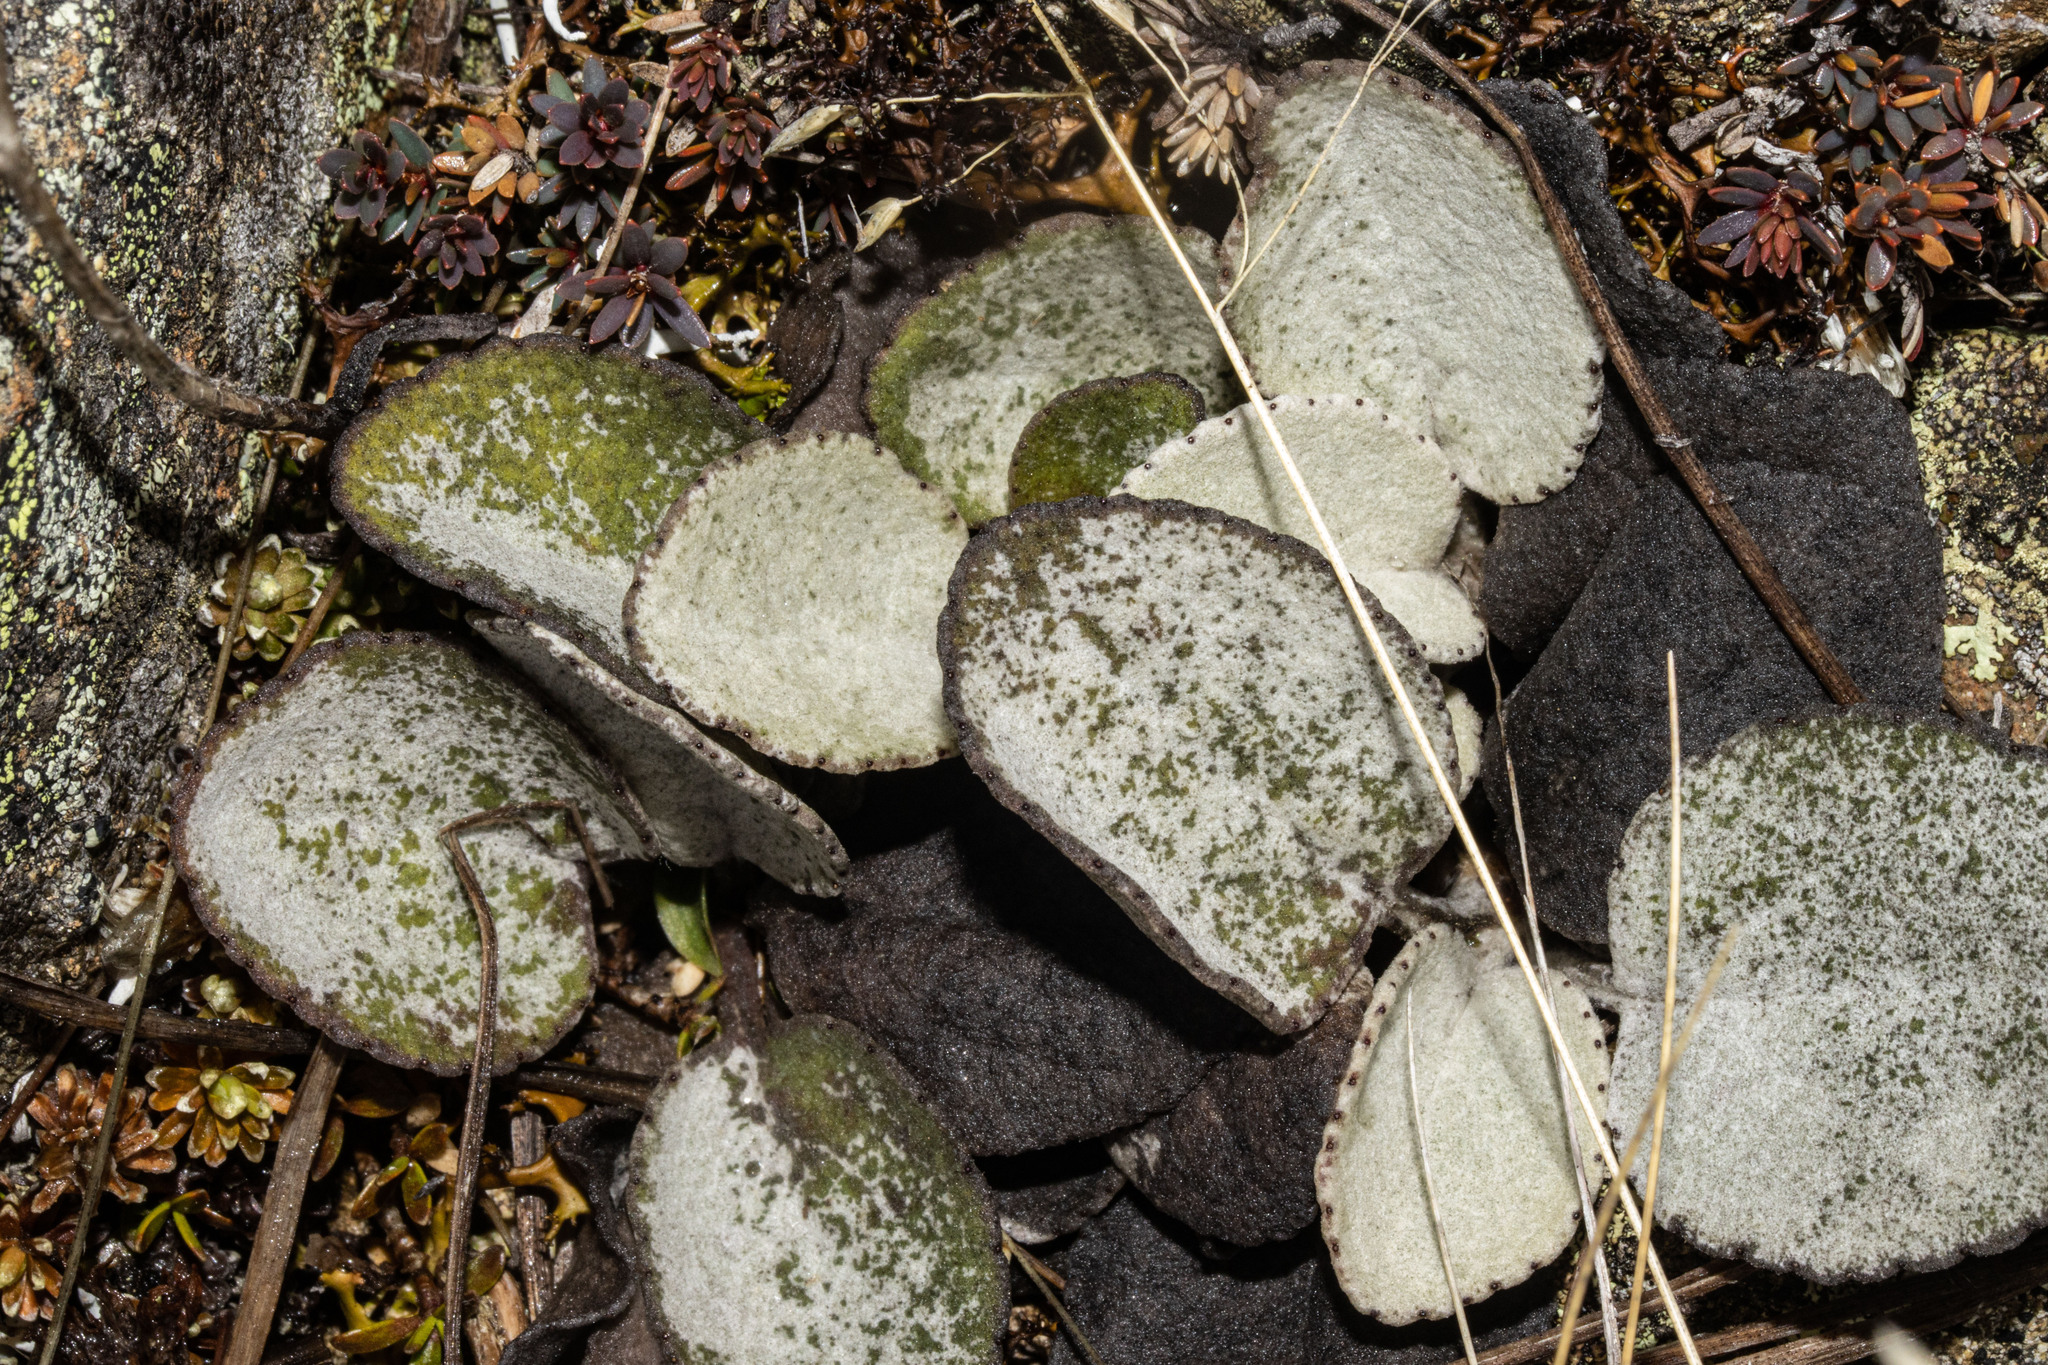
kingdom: Plantae
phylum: Tracheophyta
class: Magnoliopsida
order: Asterales
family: Asteraceae
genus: Brachyglottis
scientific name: Brachyglottis haastii
